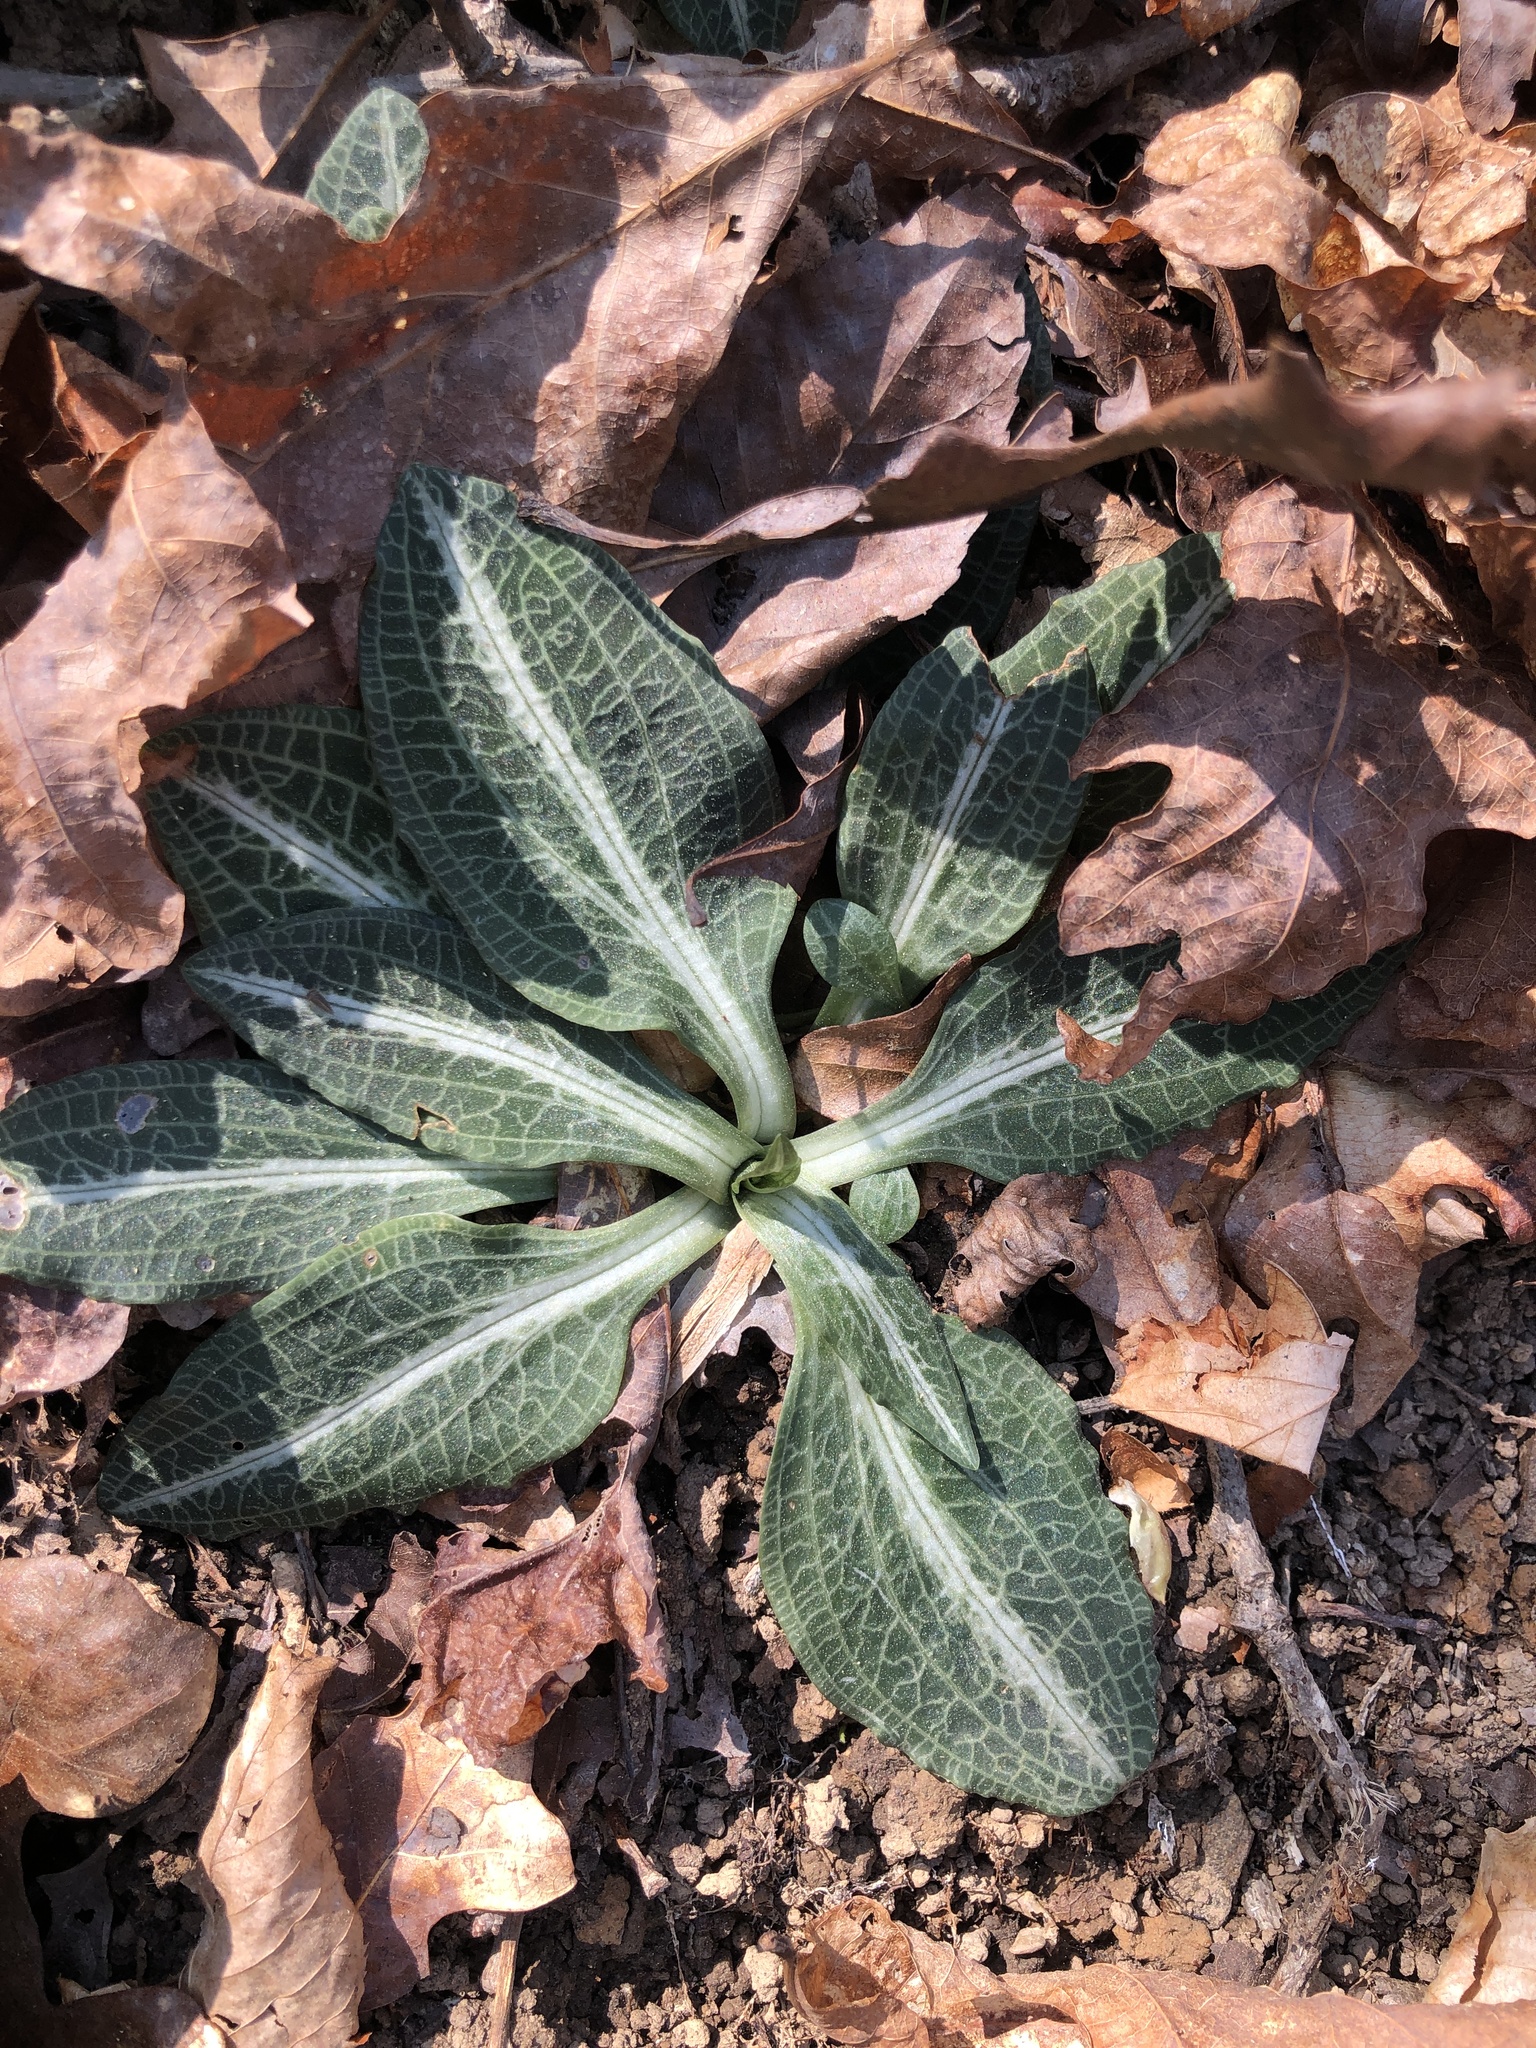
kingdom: Plantae
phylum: Tracheophyta
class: Liliopsida
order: Asparagales
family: Orchidaceae
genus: Goodyera
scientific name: Goodyera pubescens
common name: Downy rattlesnake-plantain
